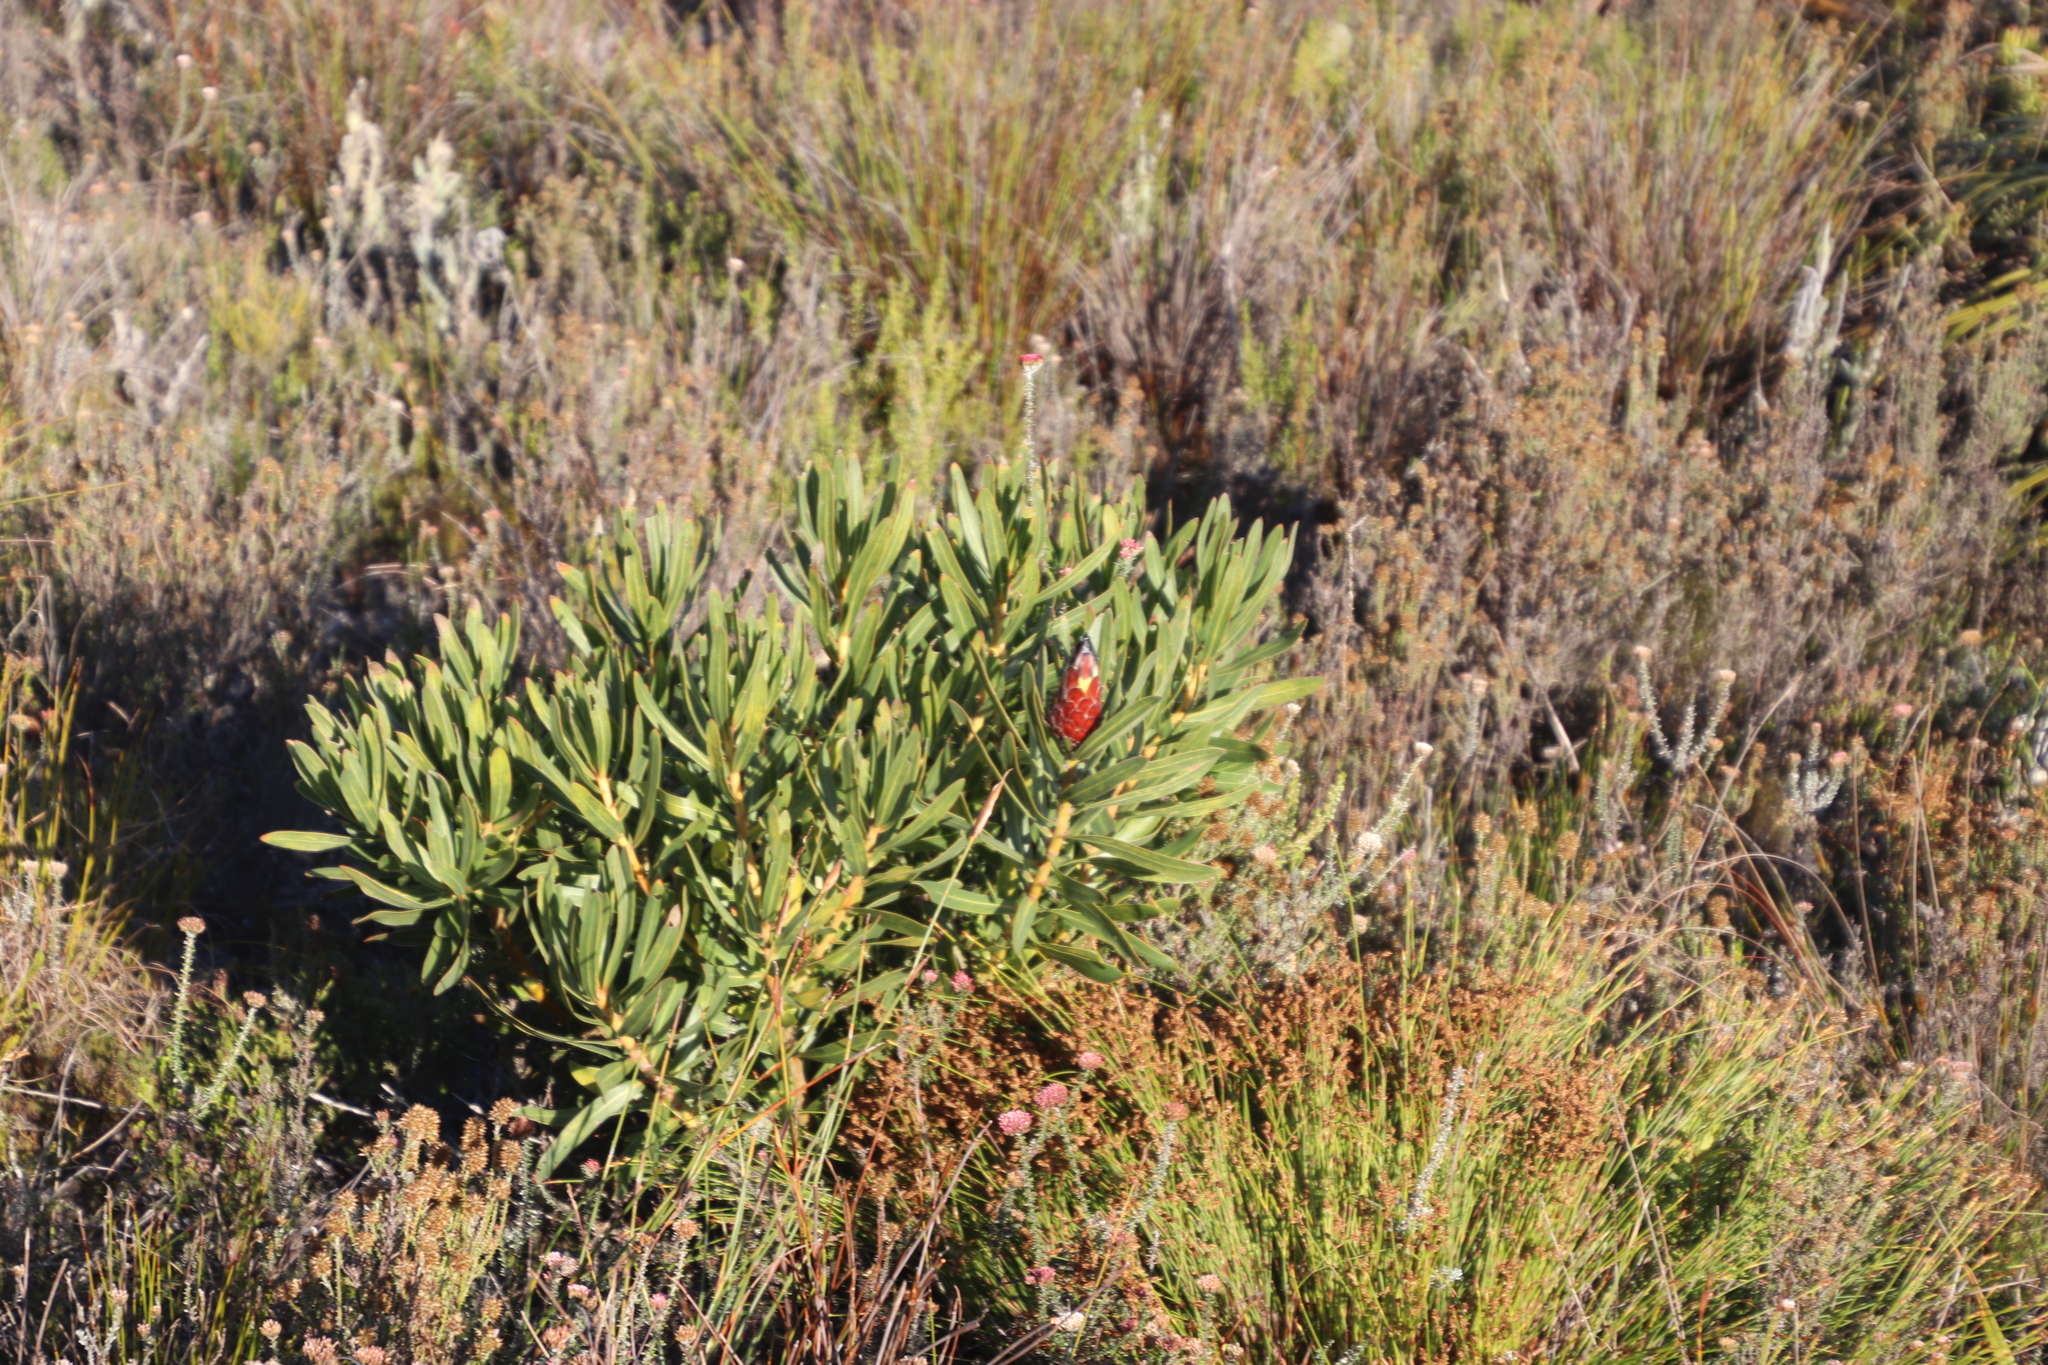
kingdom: Plantae
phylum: Tracheophyta
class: Magnoliopsida
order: Proteales
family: Proteaceae
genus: Protea
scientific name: Protea lepidocarpodendron
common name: Black-bearded protea
